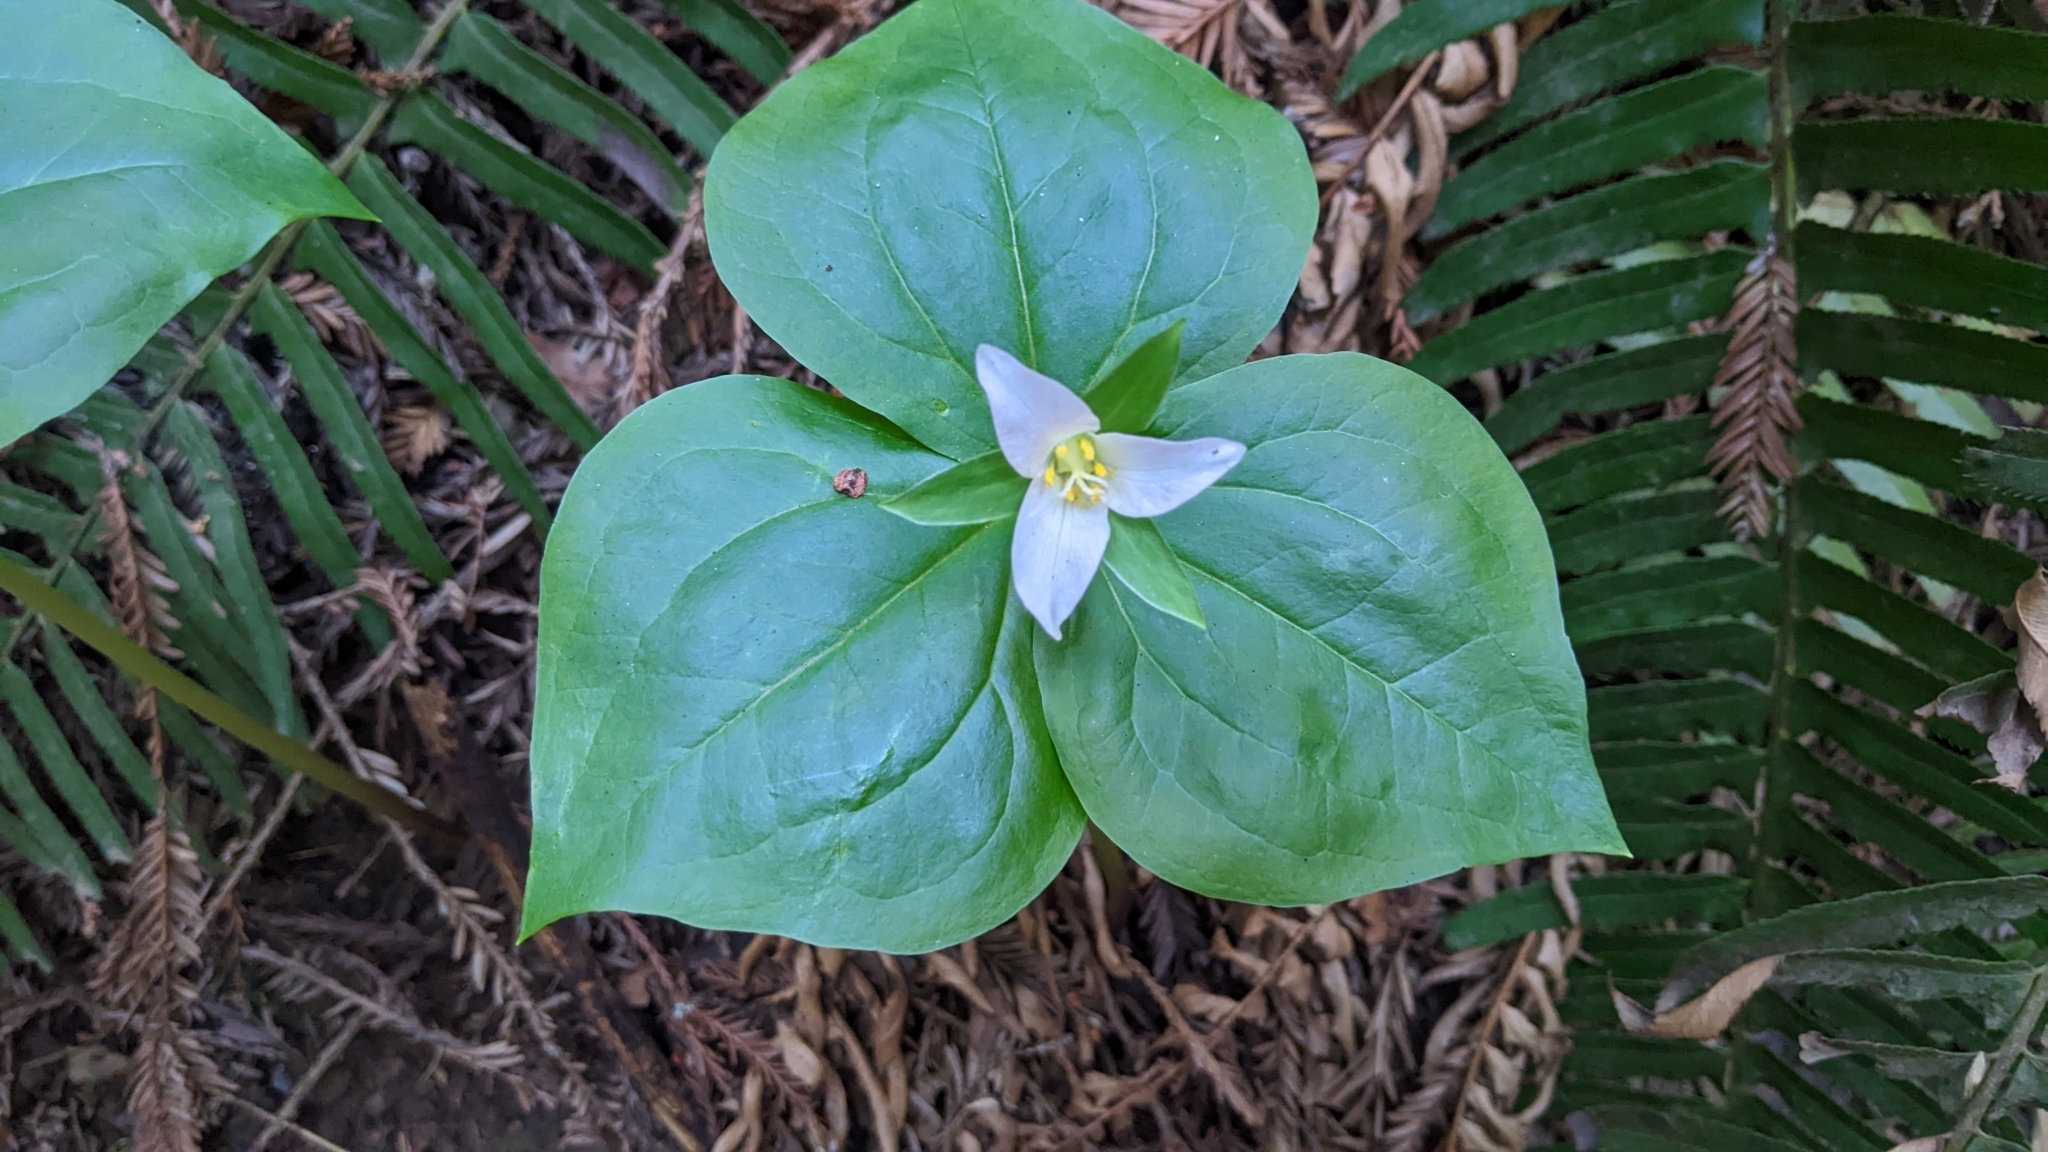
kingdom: Plantae
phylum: Tracheophyta
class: Liliopsida
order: Liliales
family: Melanthiaceae
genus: Trillium
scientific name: Trillium ovatum
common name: Pacific trillium
